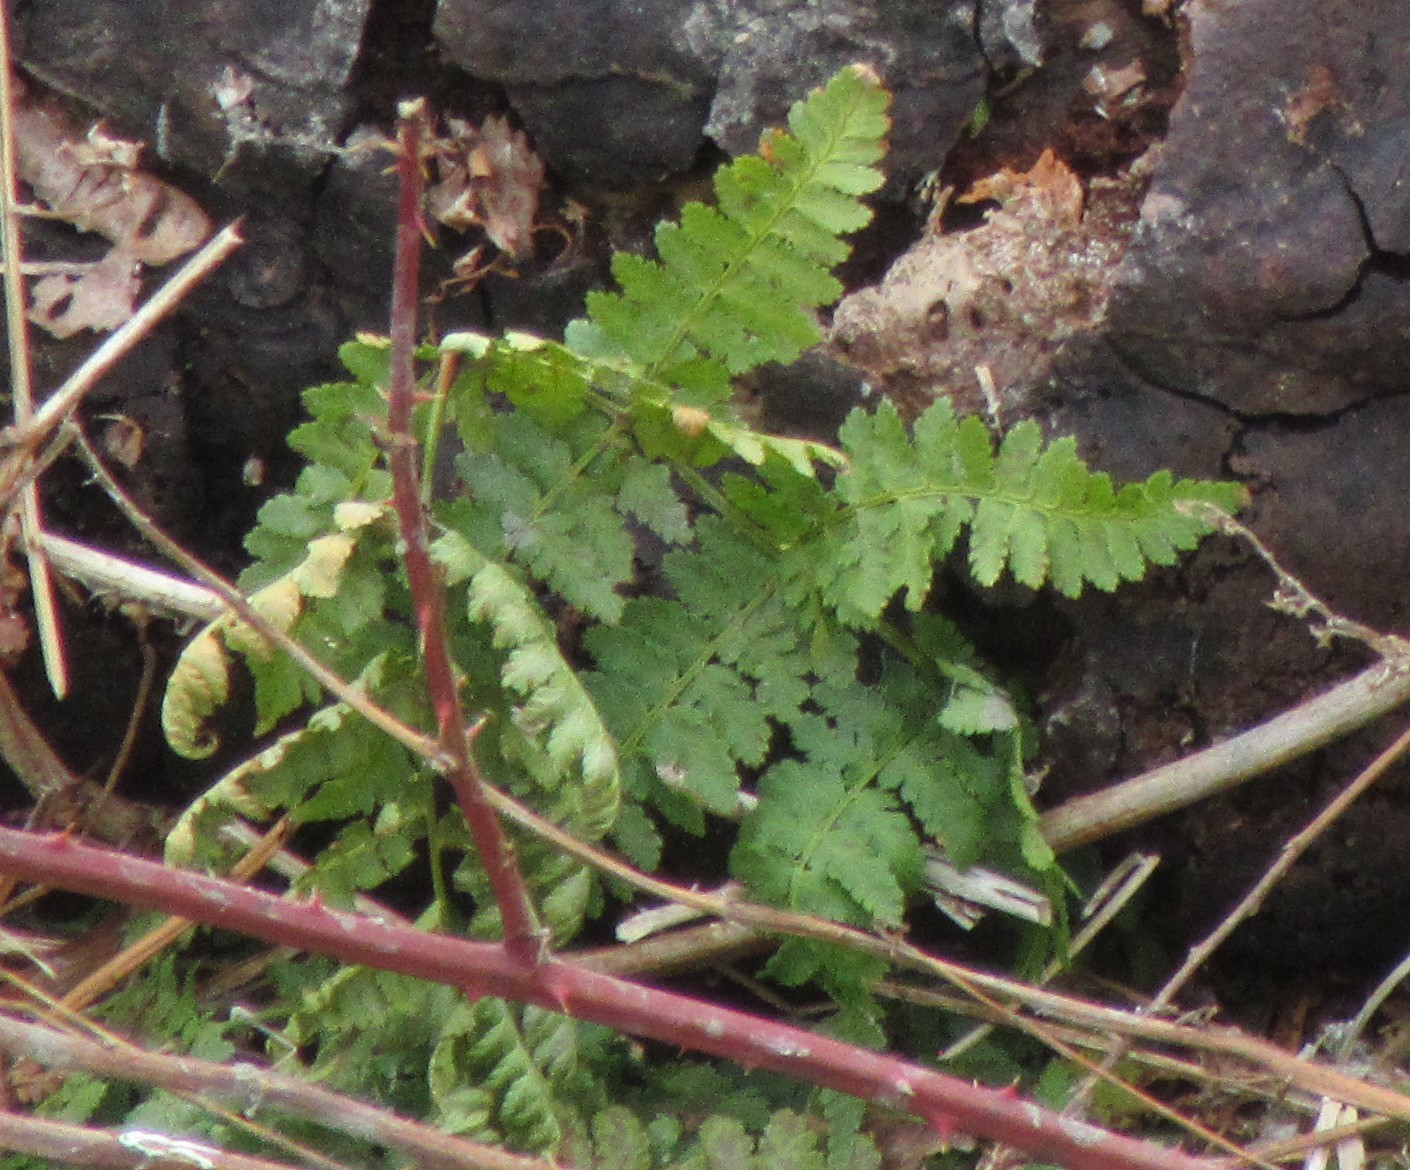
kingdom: Plantae
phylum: Tracheophyta
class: Polypodiopsida
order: Polypodiales
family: Dryopteridaceae
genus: Dryopteris
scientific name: Dryopteris intermedia
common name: Evergreen wood fern
